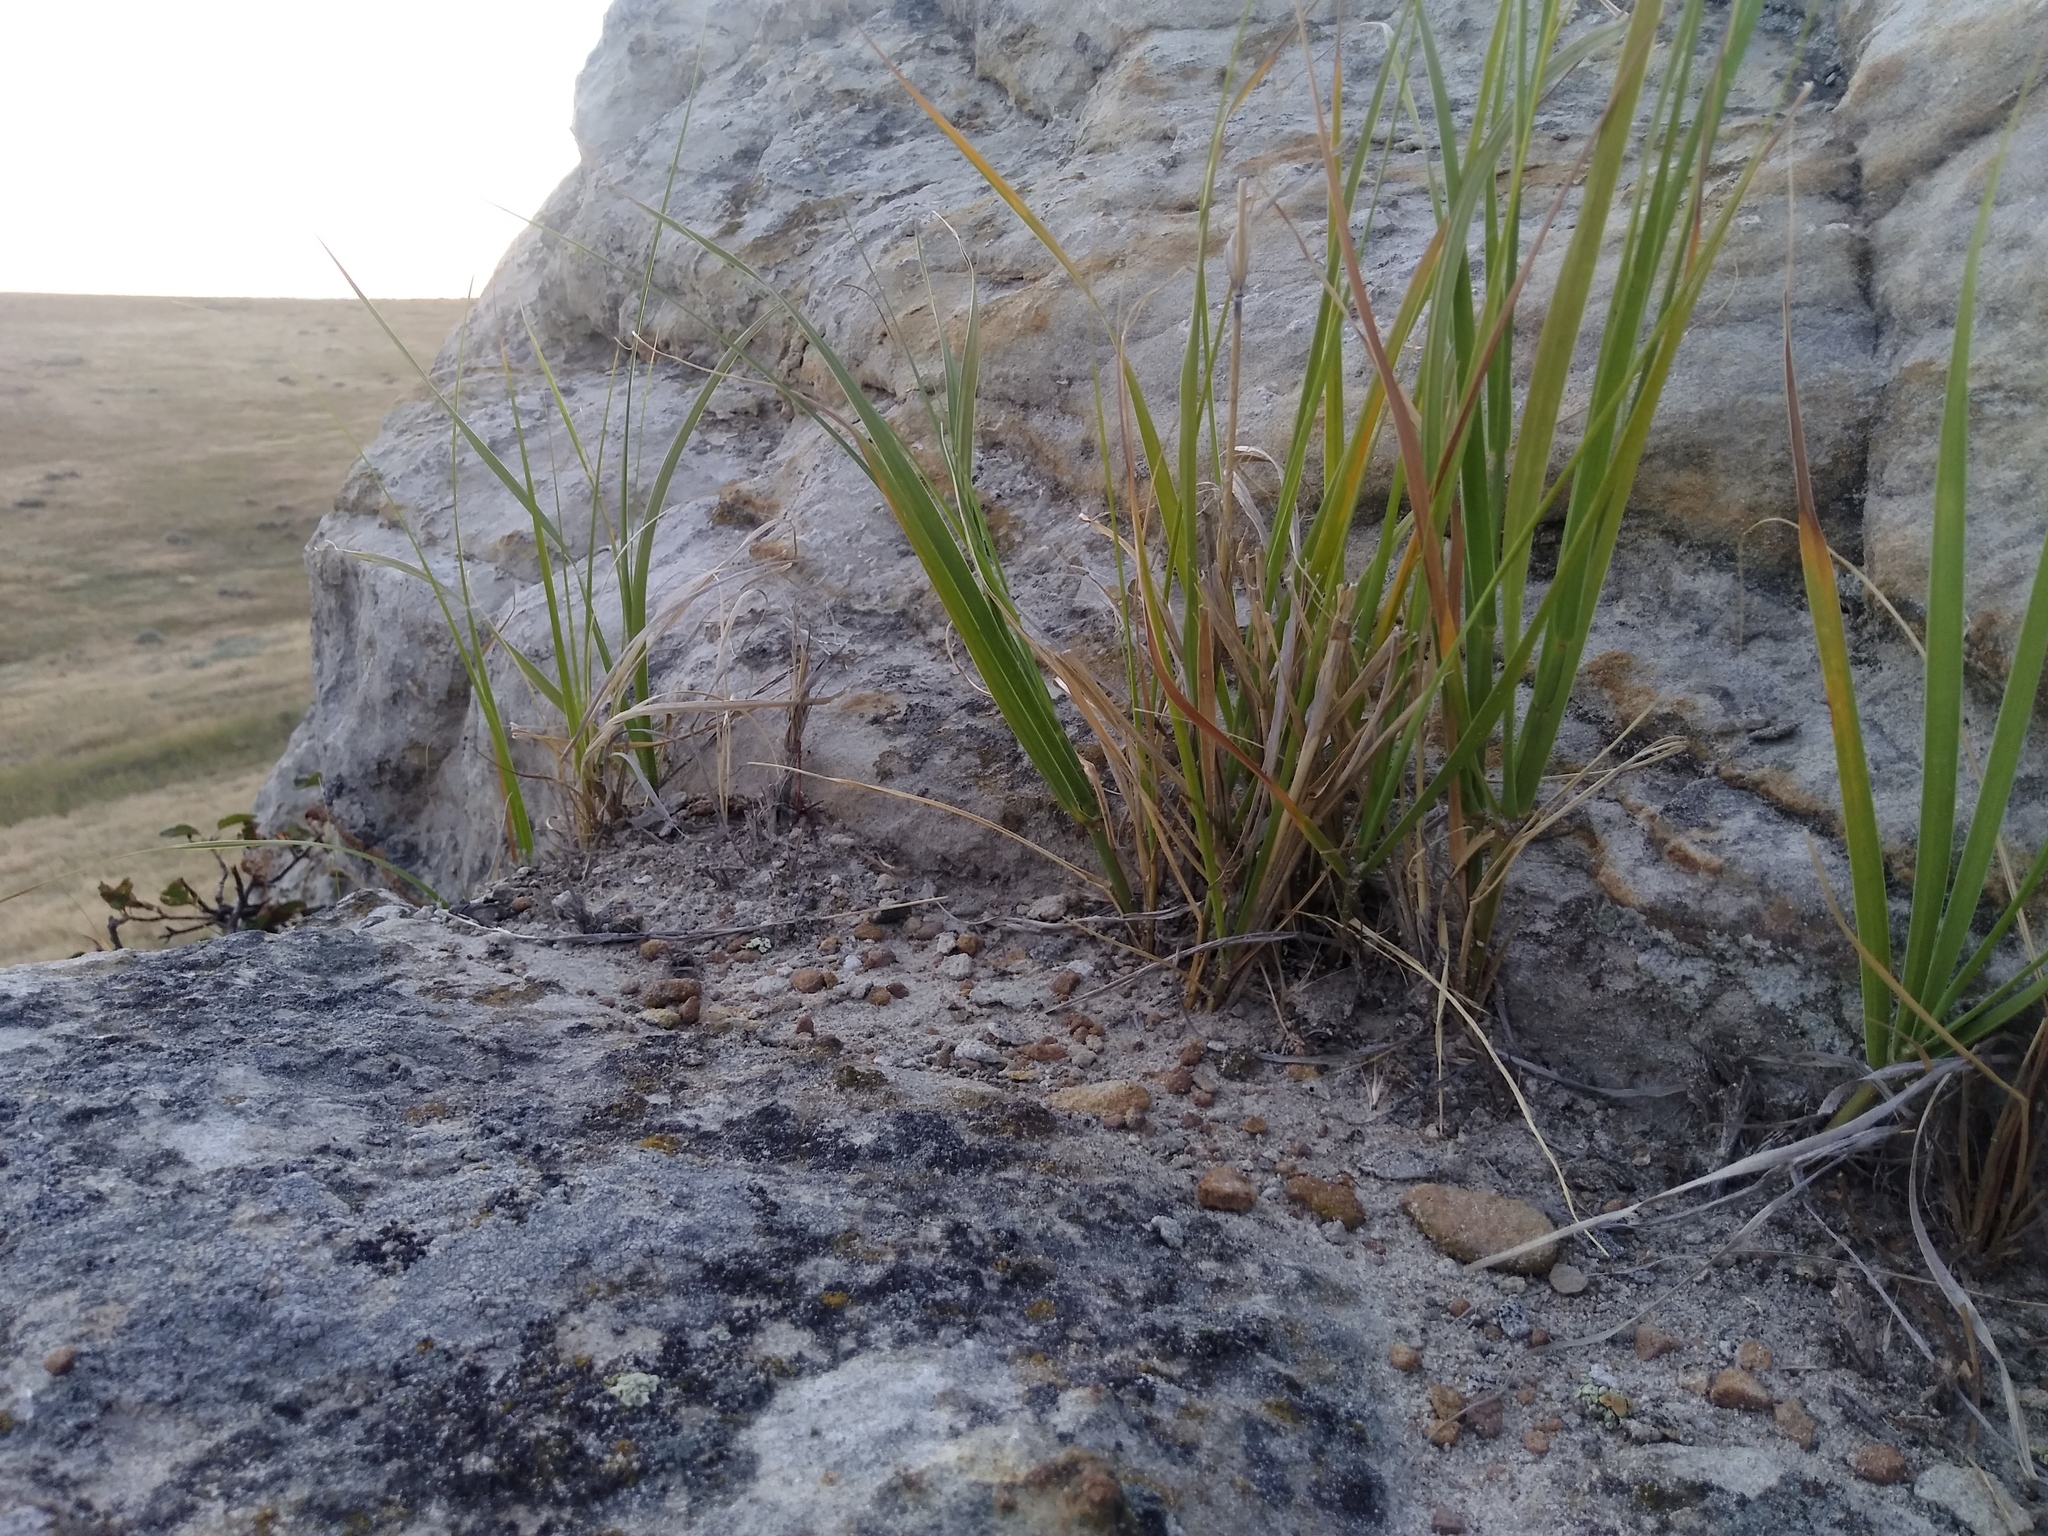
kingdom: Plantae
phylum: Tracheophyta
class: Liliopsida
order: Poales
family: Poaceae
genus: Sporobolus
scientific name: Sporobolus rigidus
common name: Prairie sandreed
